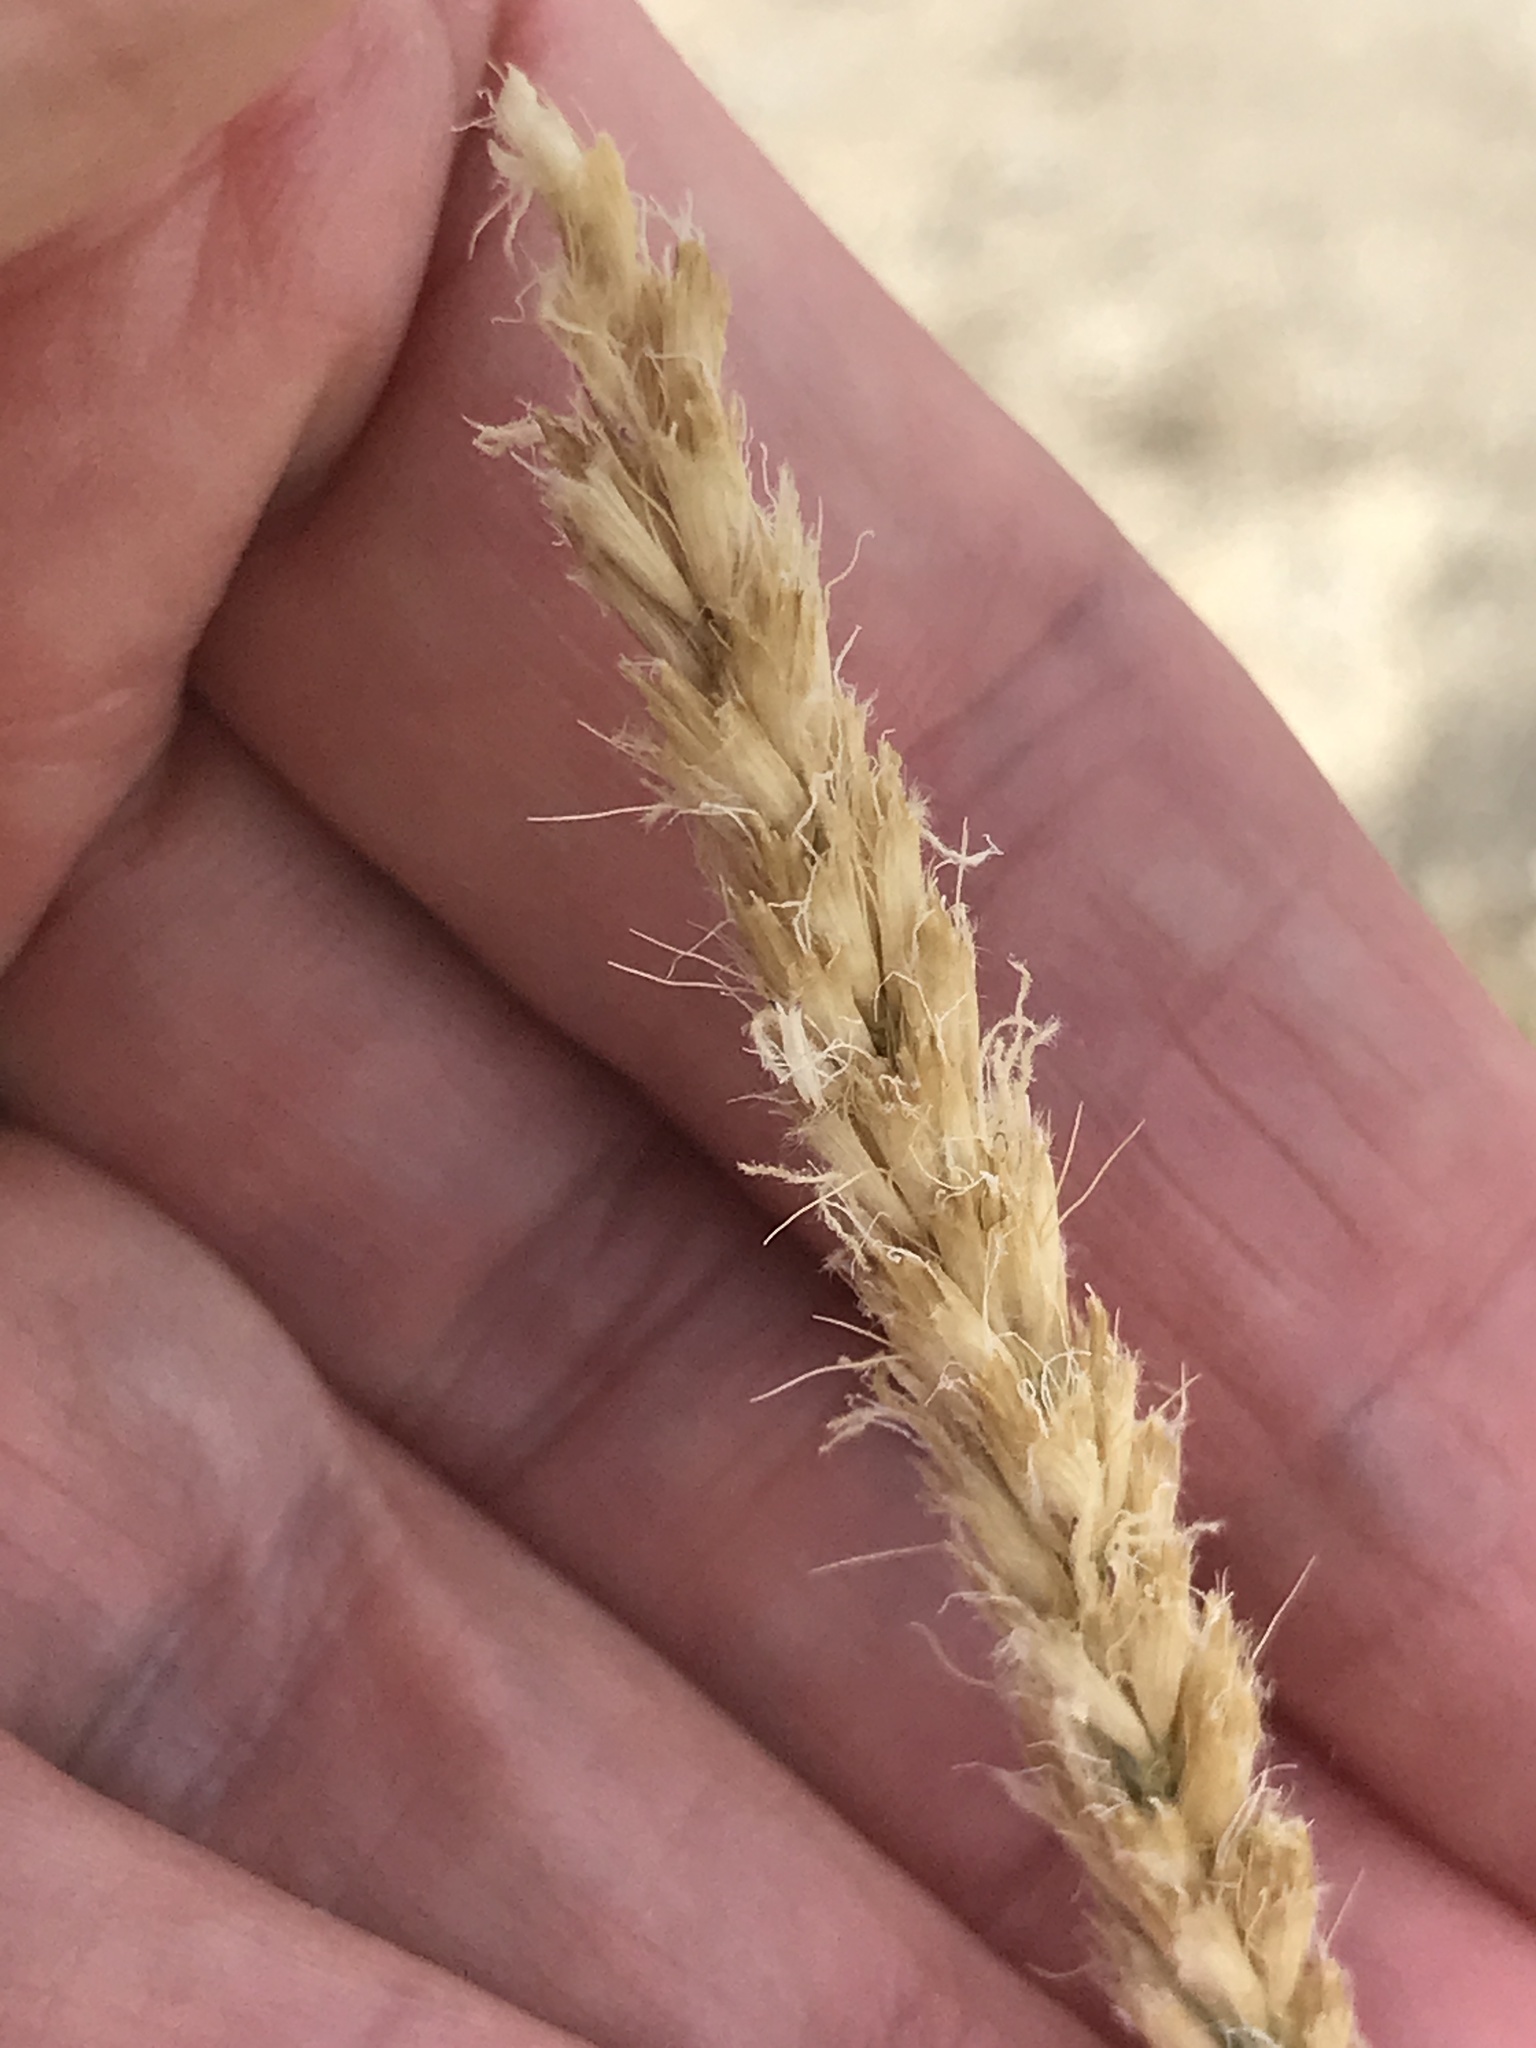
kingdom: Plantae
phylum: Tracheophyta
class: Liliopsida
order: Poales
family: Poaceae
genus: Hilaria
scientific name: Hilaria rigida
